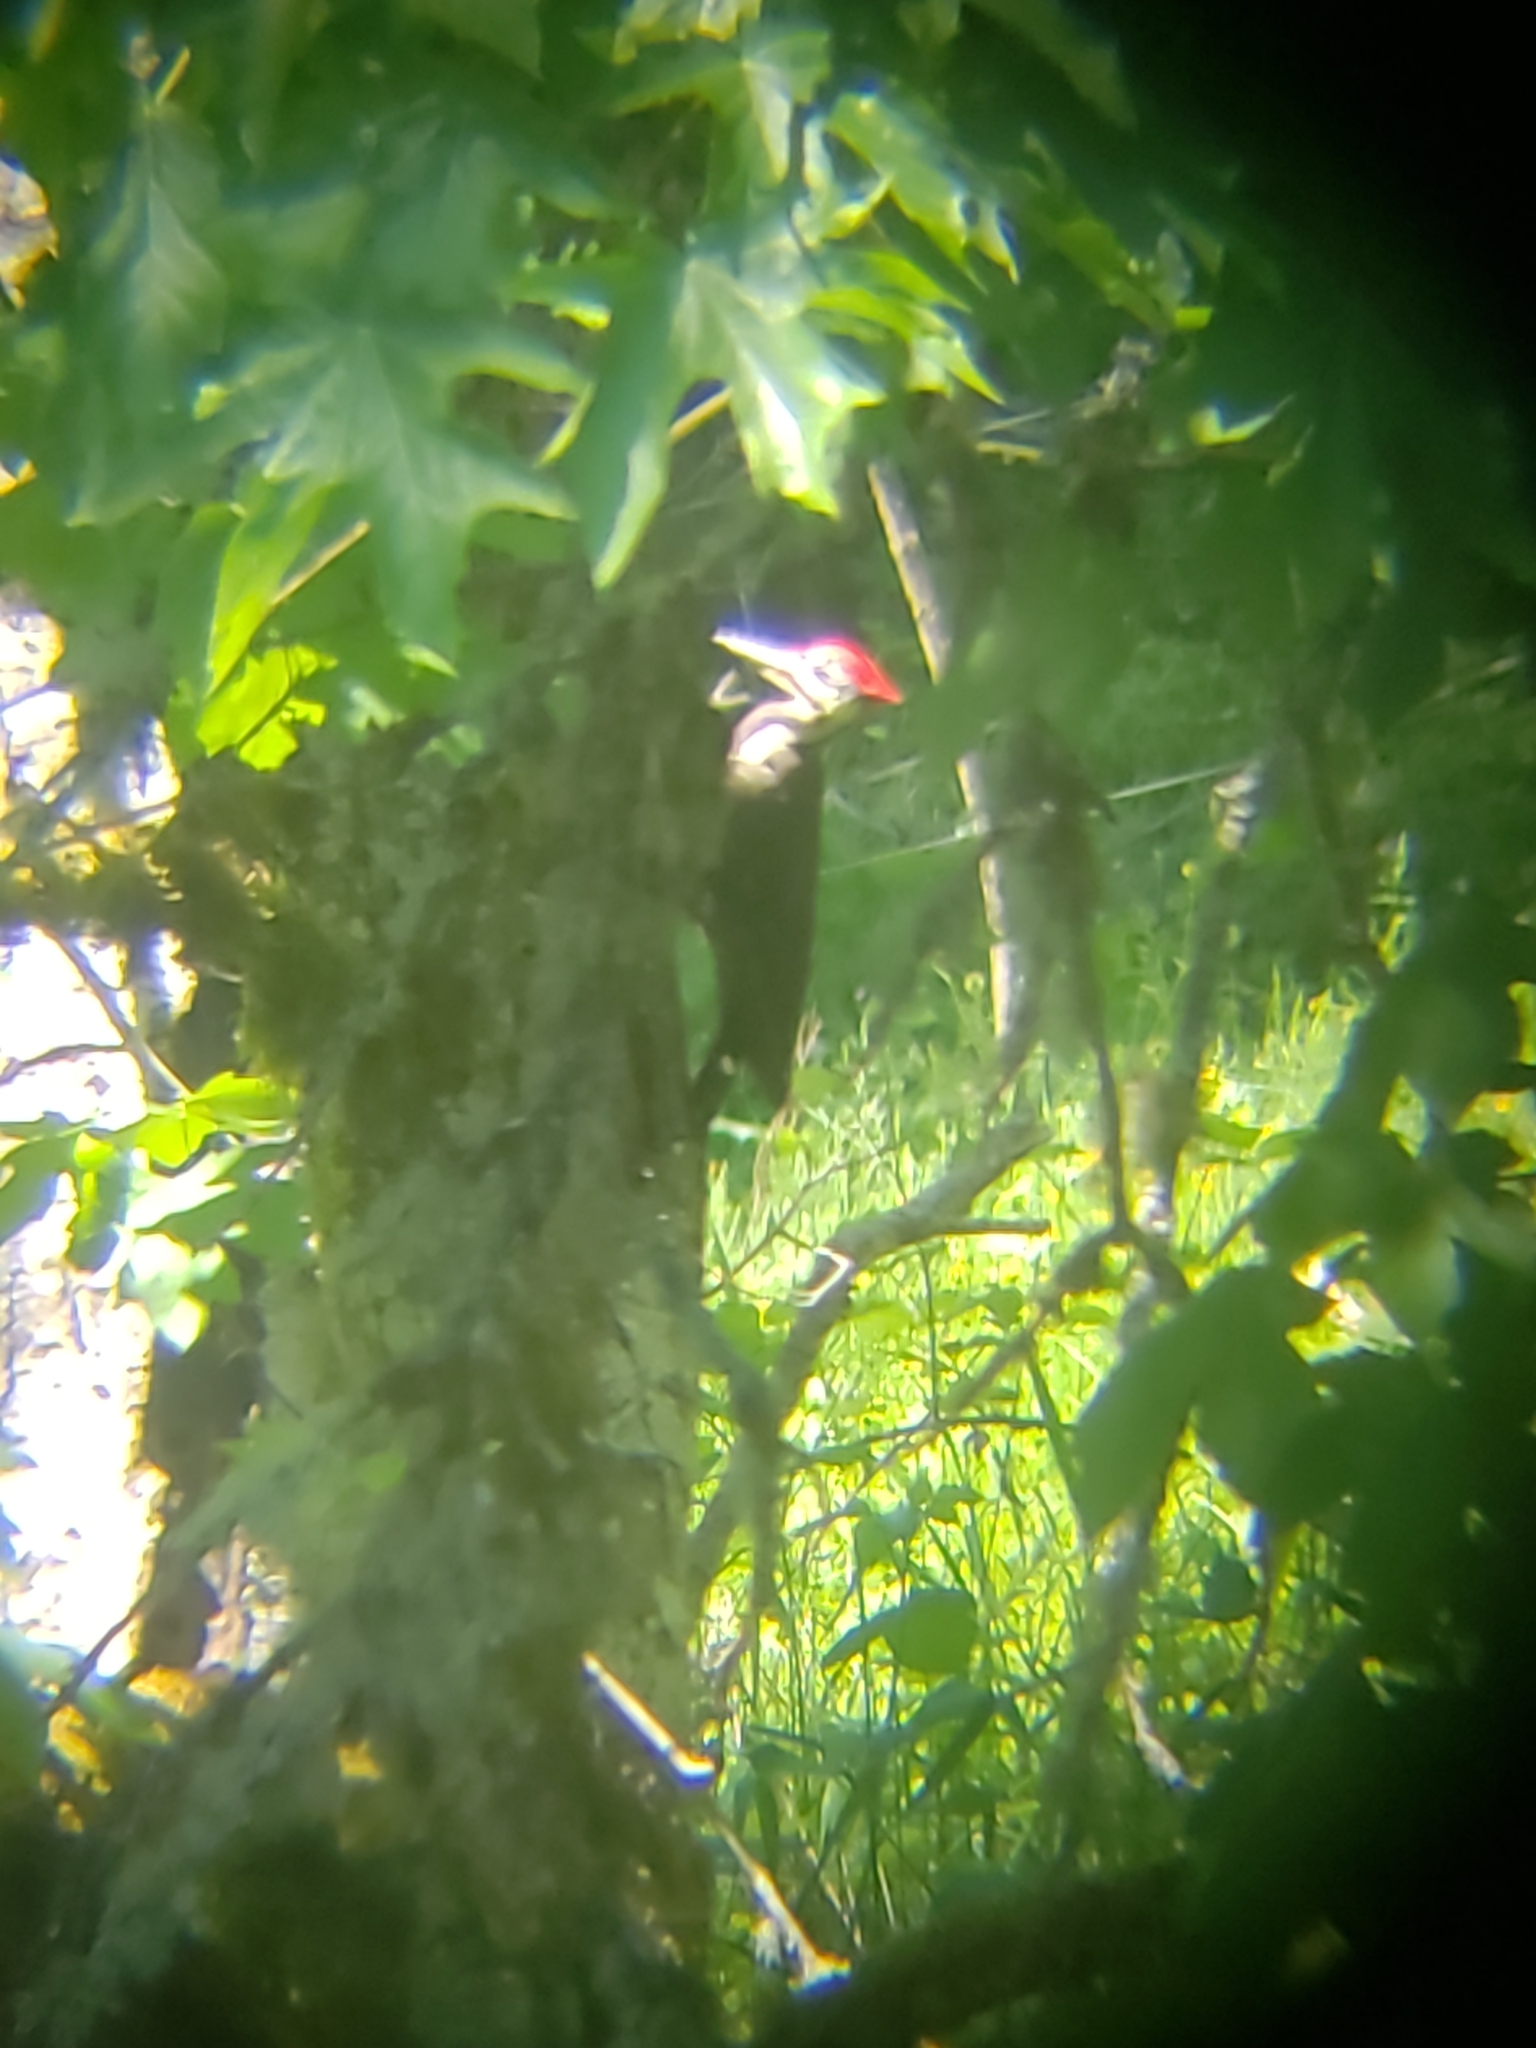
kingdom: Animalia
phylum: Chordata
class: Aves
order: Piciformes
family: Picidae
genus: Dryocopus
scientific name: Dryocopus pileatus
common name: Pileated woodpecker
